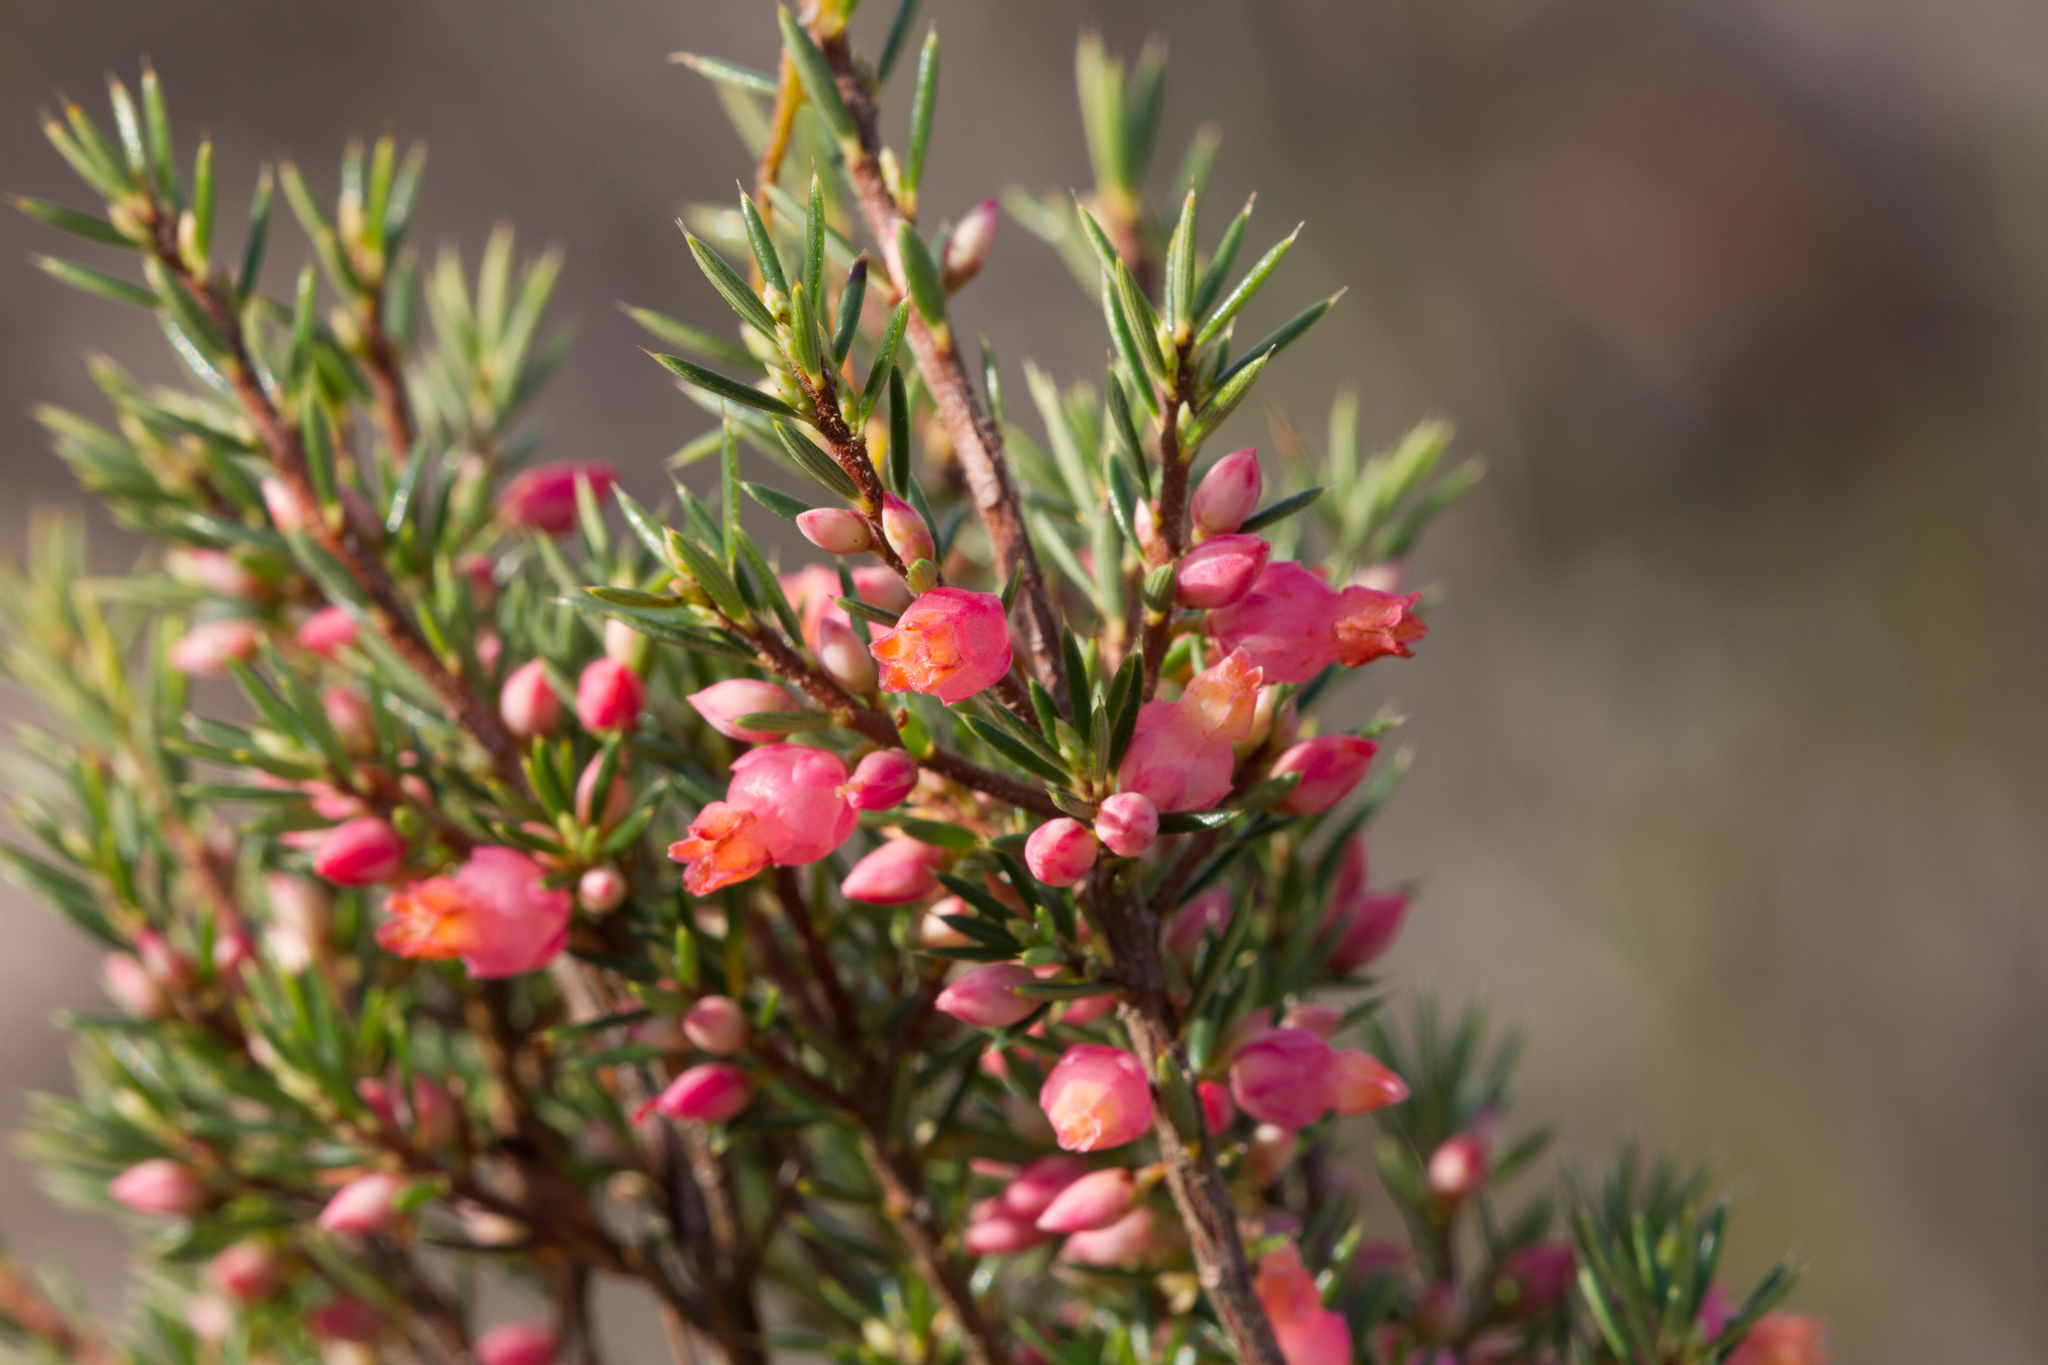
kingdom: Plantae
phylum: Tracheophyta
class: Magnoliopsida
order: Ericales
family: Ericaceae
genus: Brachyloma
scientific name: Brachyloma ericoides
